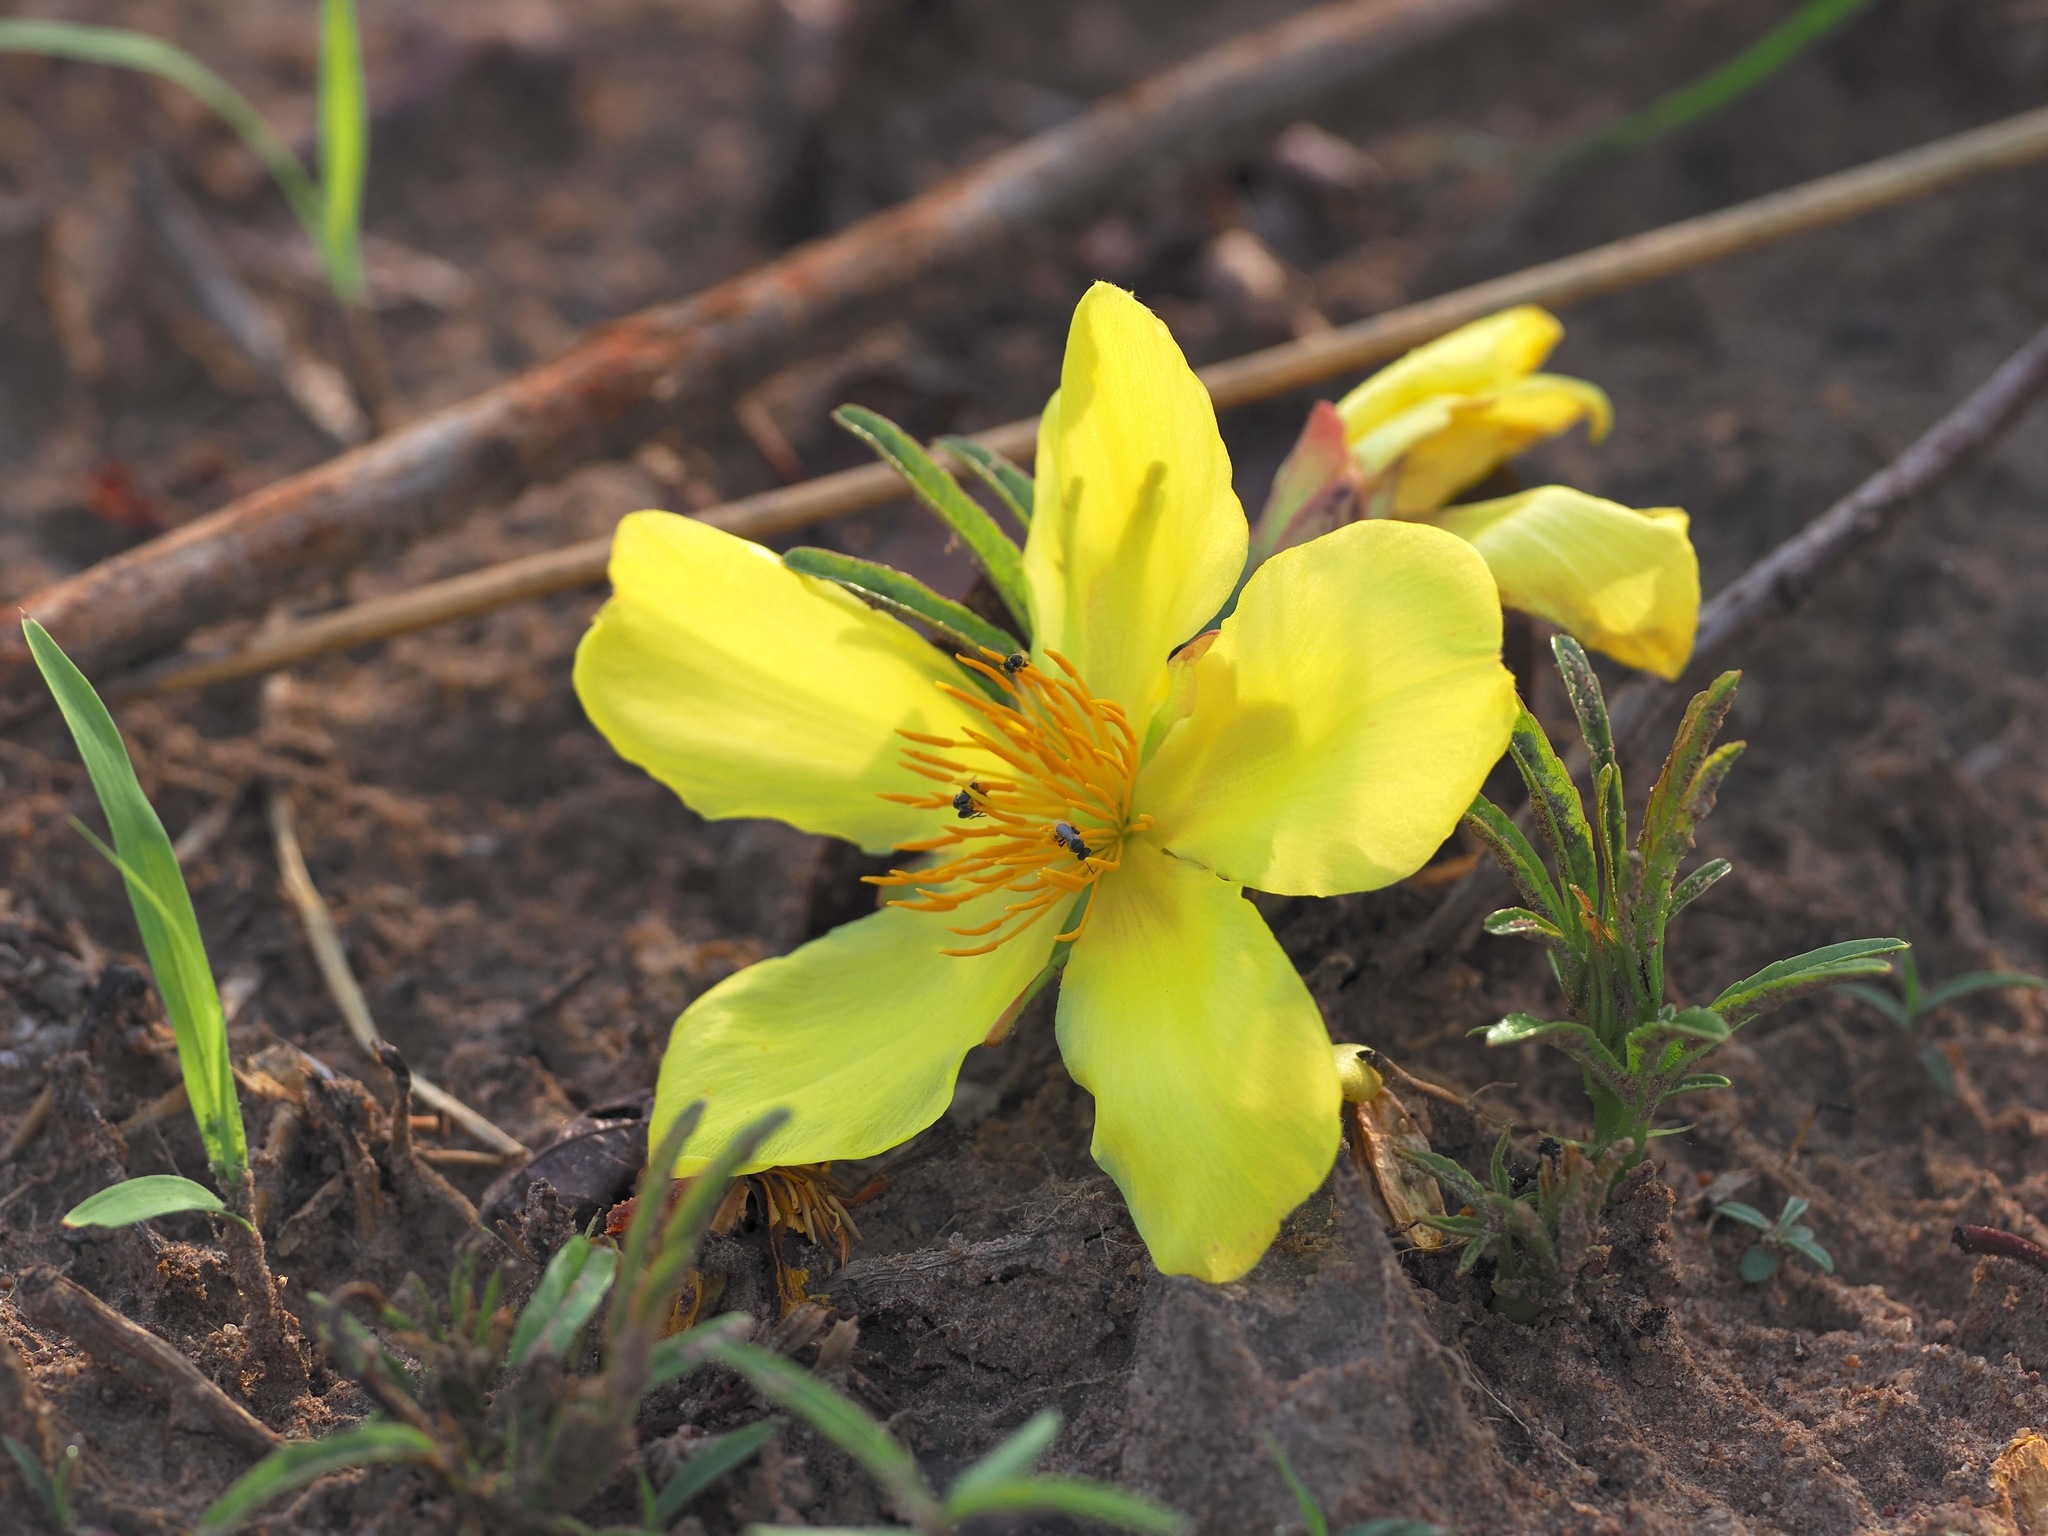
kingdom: Plantae
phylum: Tracheophyta
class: Magnoliopsida
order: Malvales
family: Cochlospermaceae
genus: Cochlospermum
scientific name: Cochlospermum tinctorium
